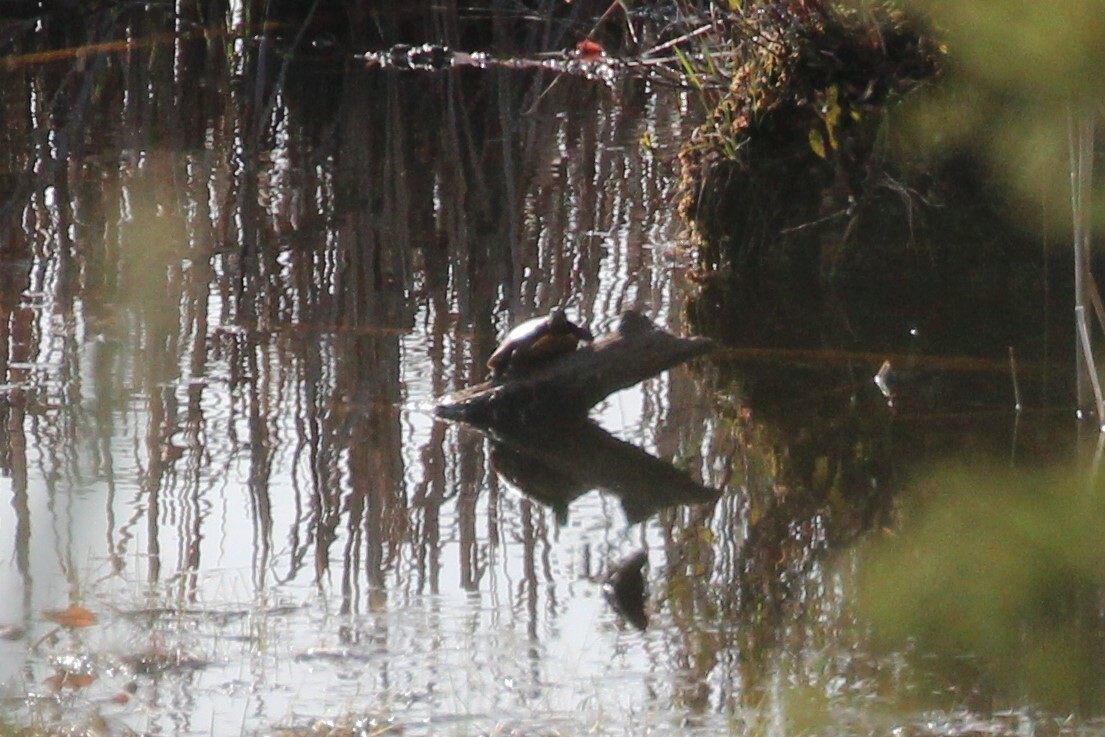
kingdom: Animalia
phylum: Chordata
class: Testudines
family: Emydidae
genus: Chrysemys
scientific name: Chrysemys picta
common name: Painted turtle
